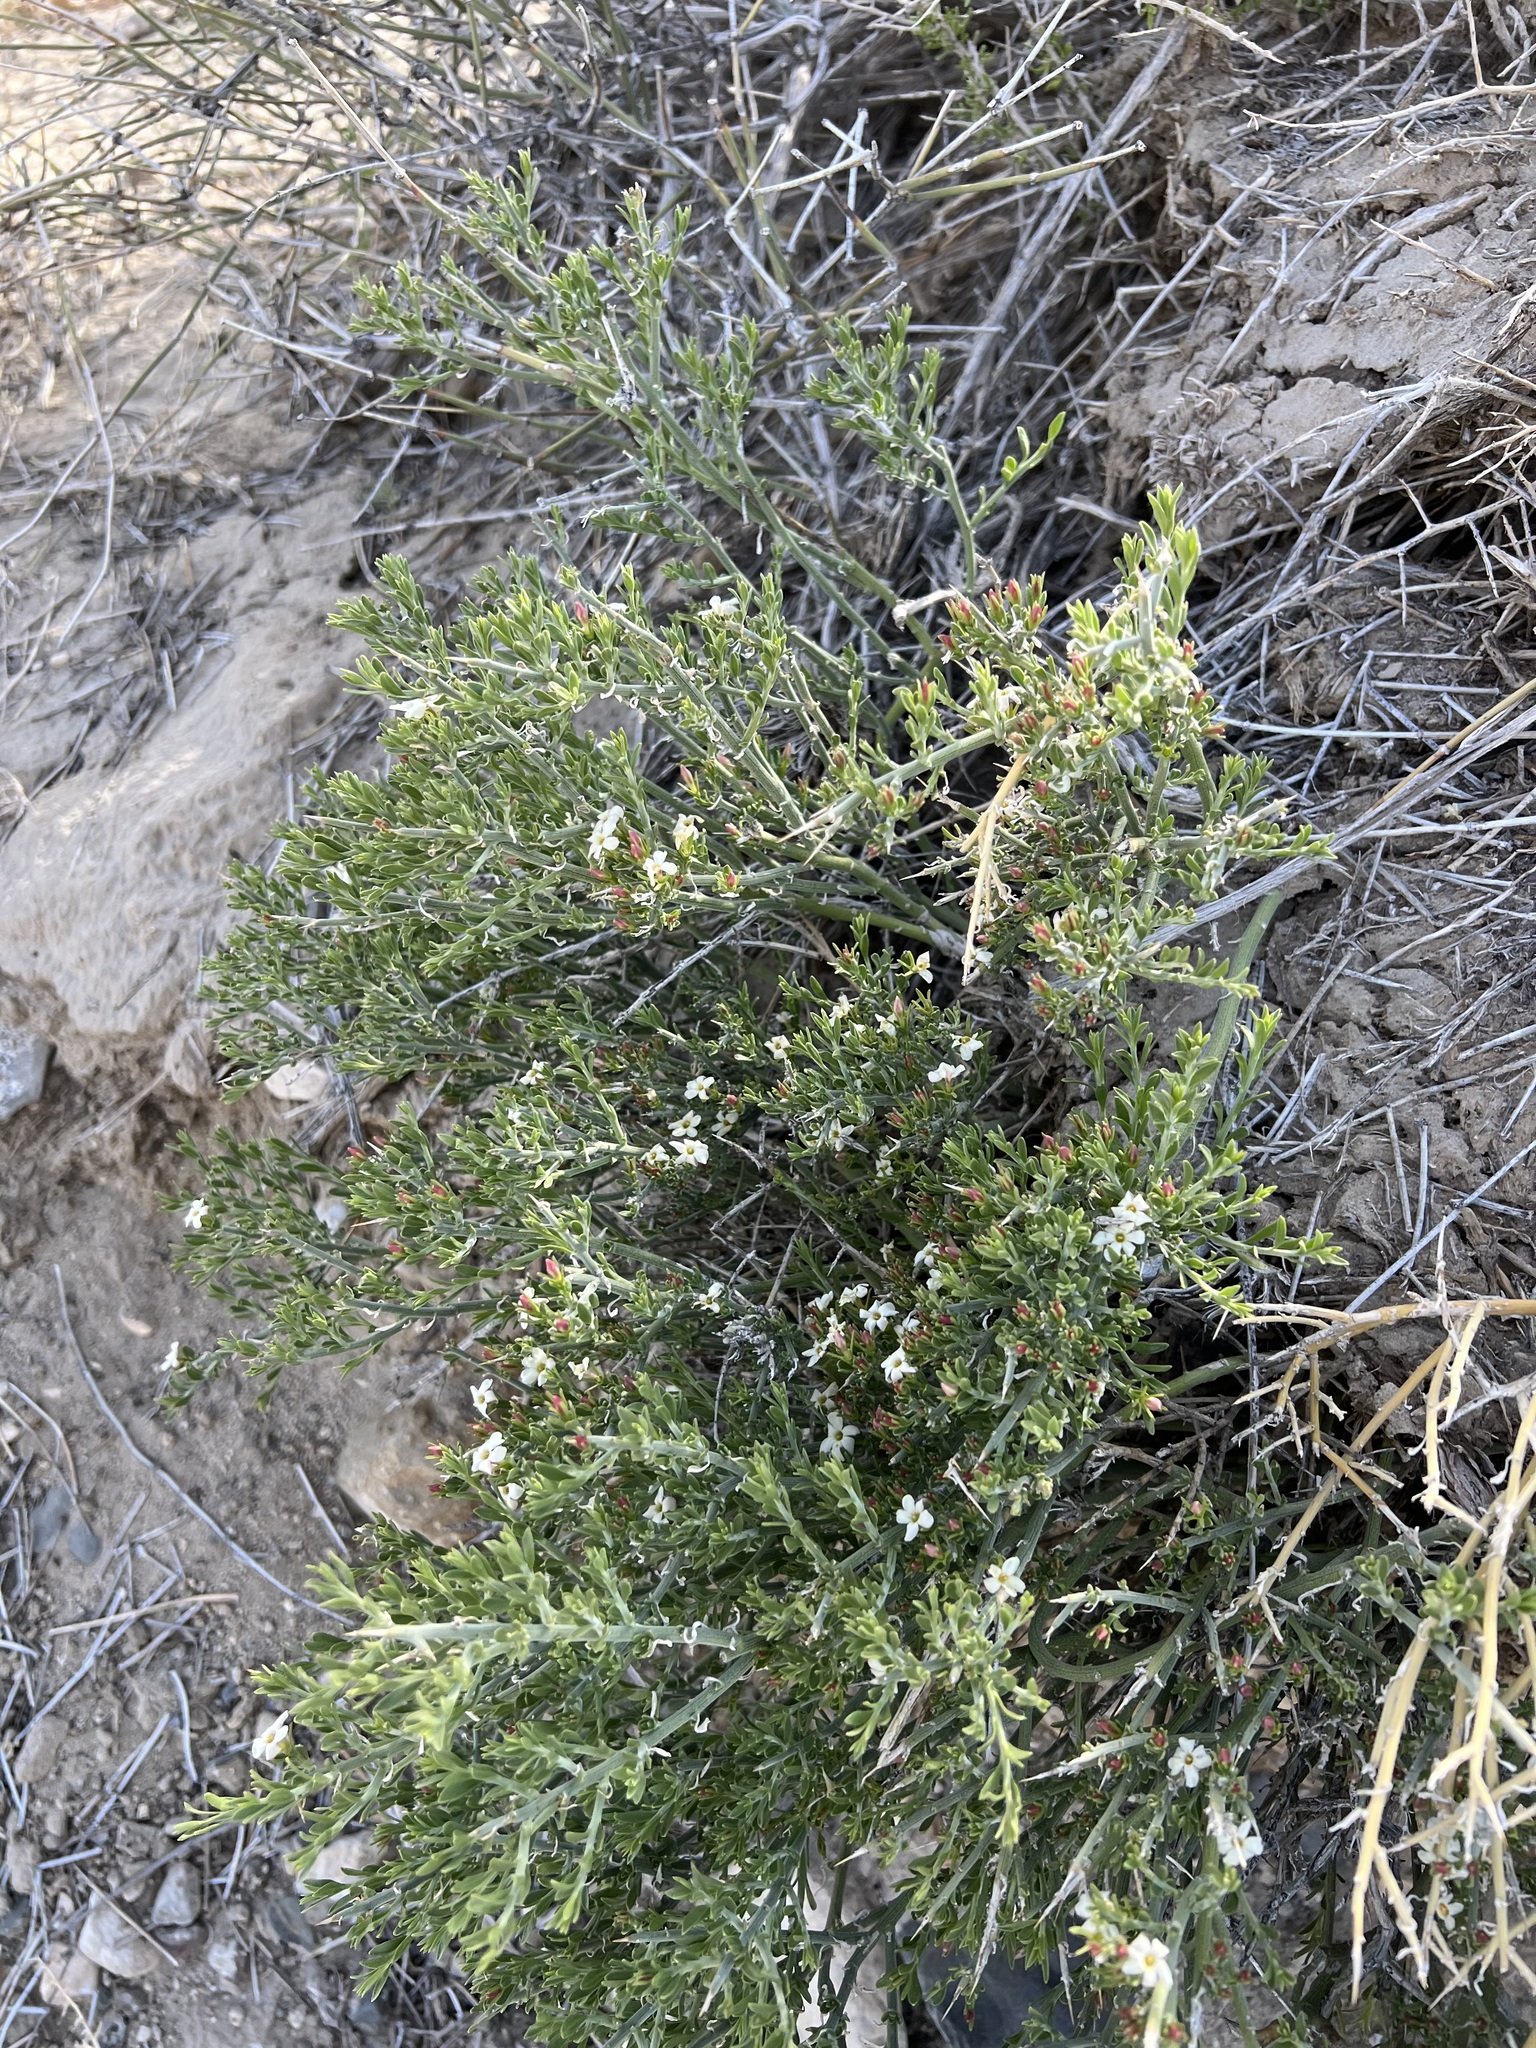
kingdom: Plantae
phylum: Tracheophyta
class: Magnoliopsida
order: Lamiales
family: Oleaceae
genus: Menodora
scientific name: Menodora spinescens
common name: Spiny menodora
